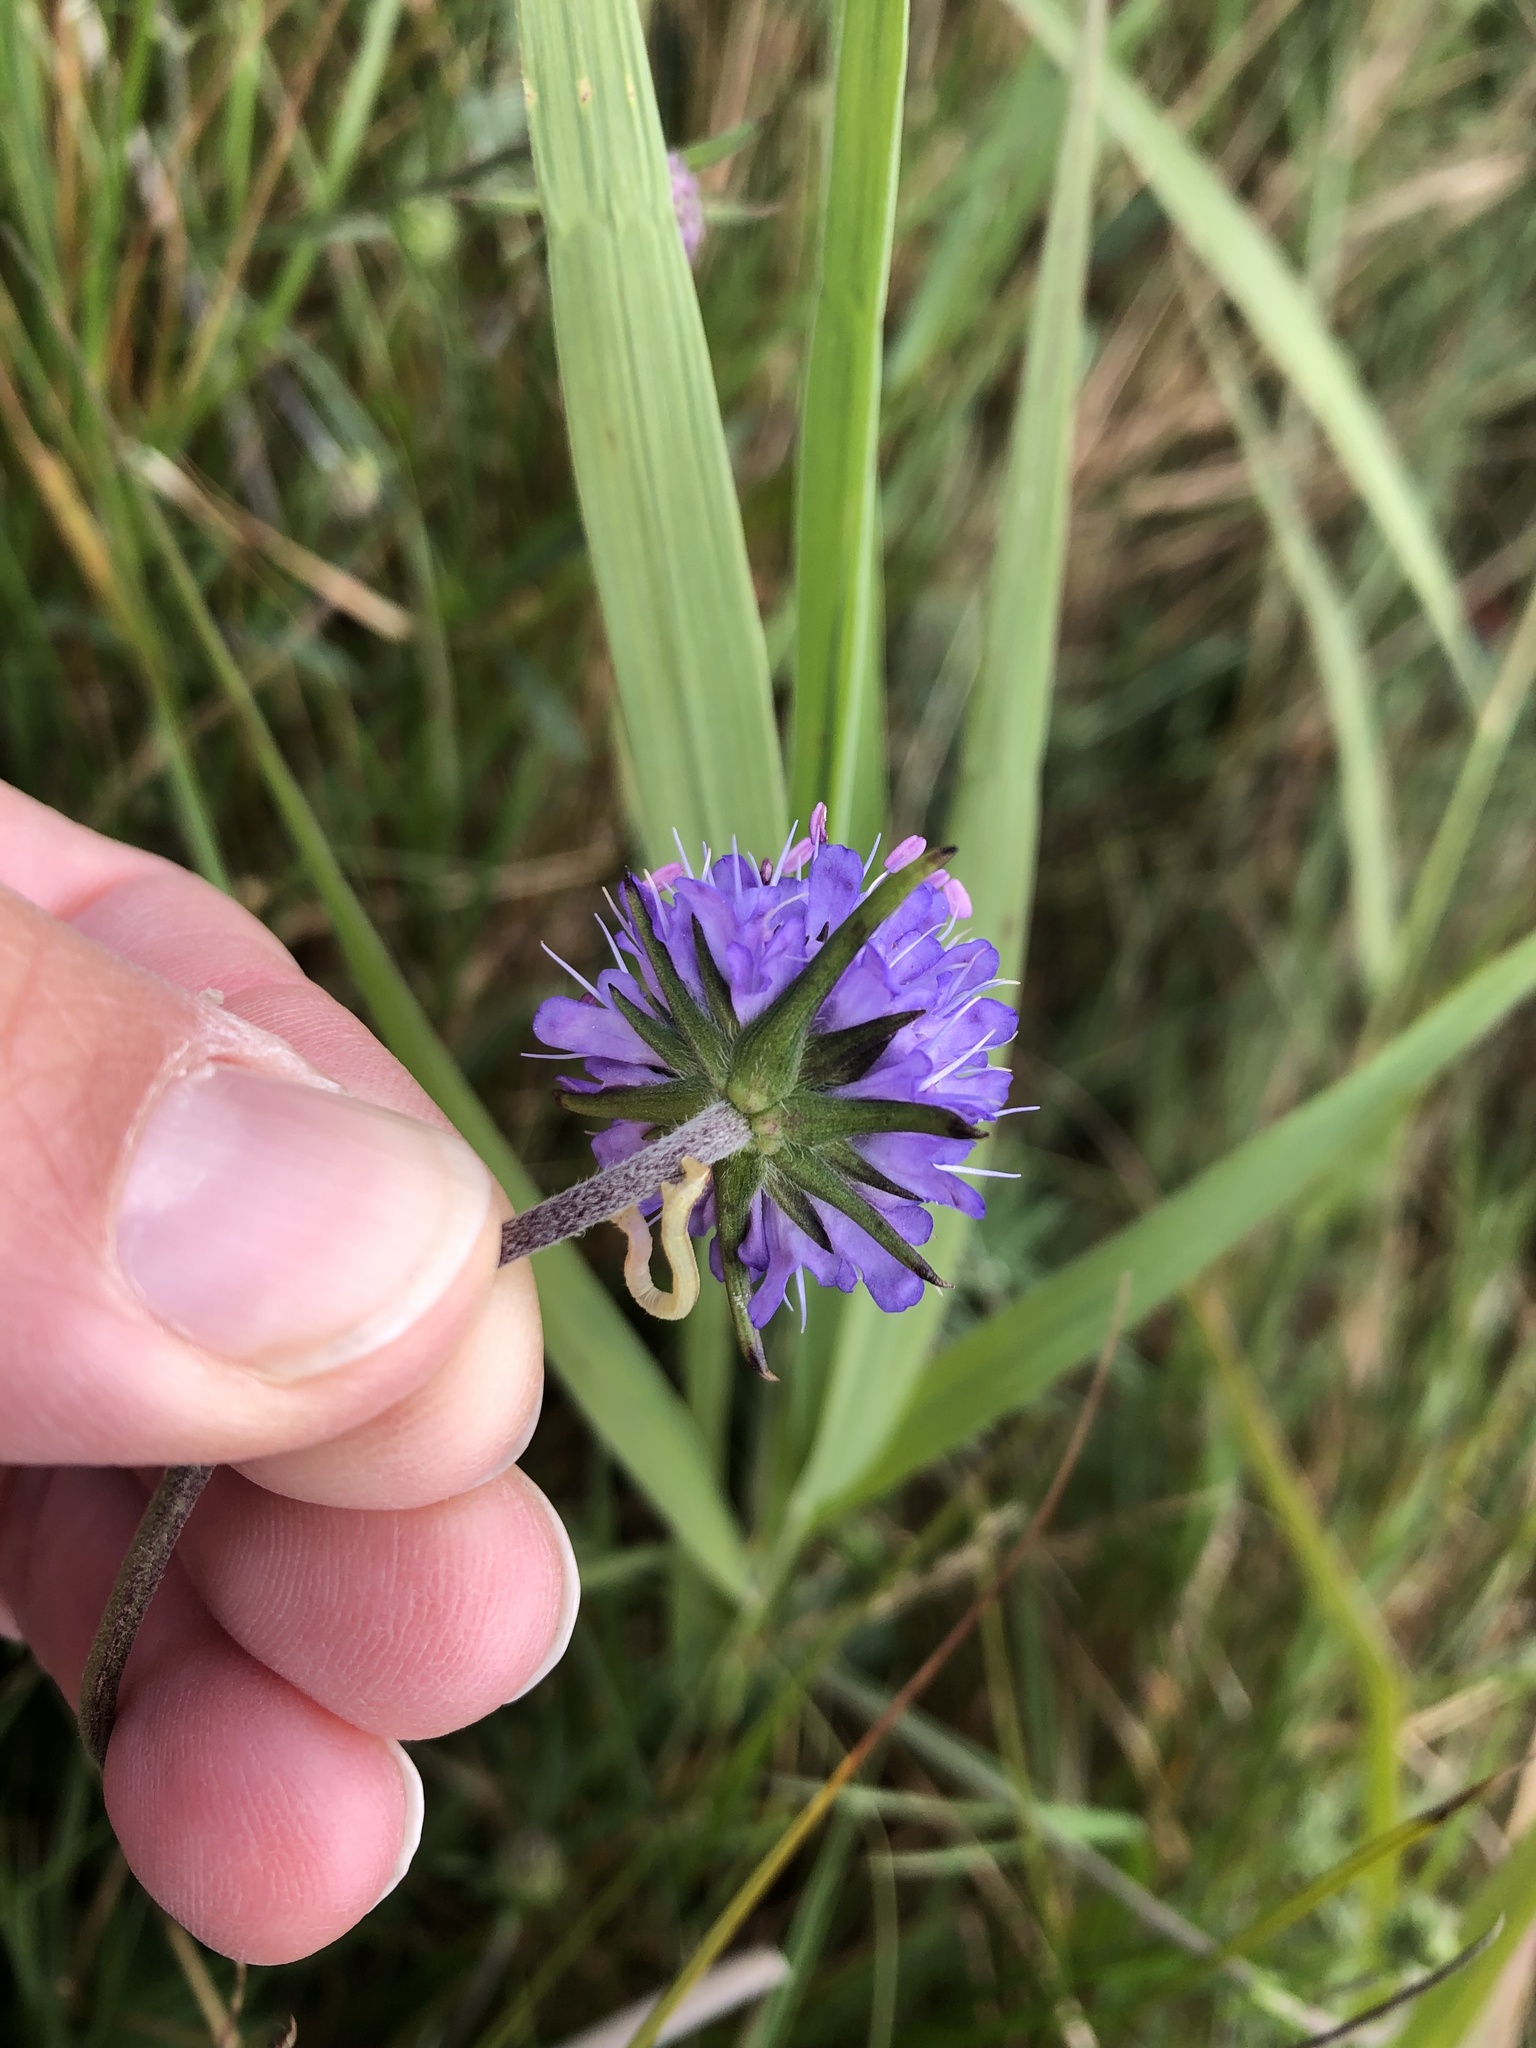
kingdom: Plantae
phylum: Tracheophyta
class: Magnoliopsida
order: Dipsacales
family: Caprifoliaceae
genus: Succisa
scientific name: Succisa pratensis
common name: Devil's-bit
